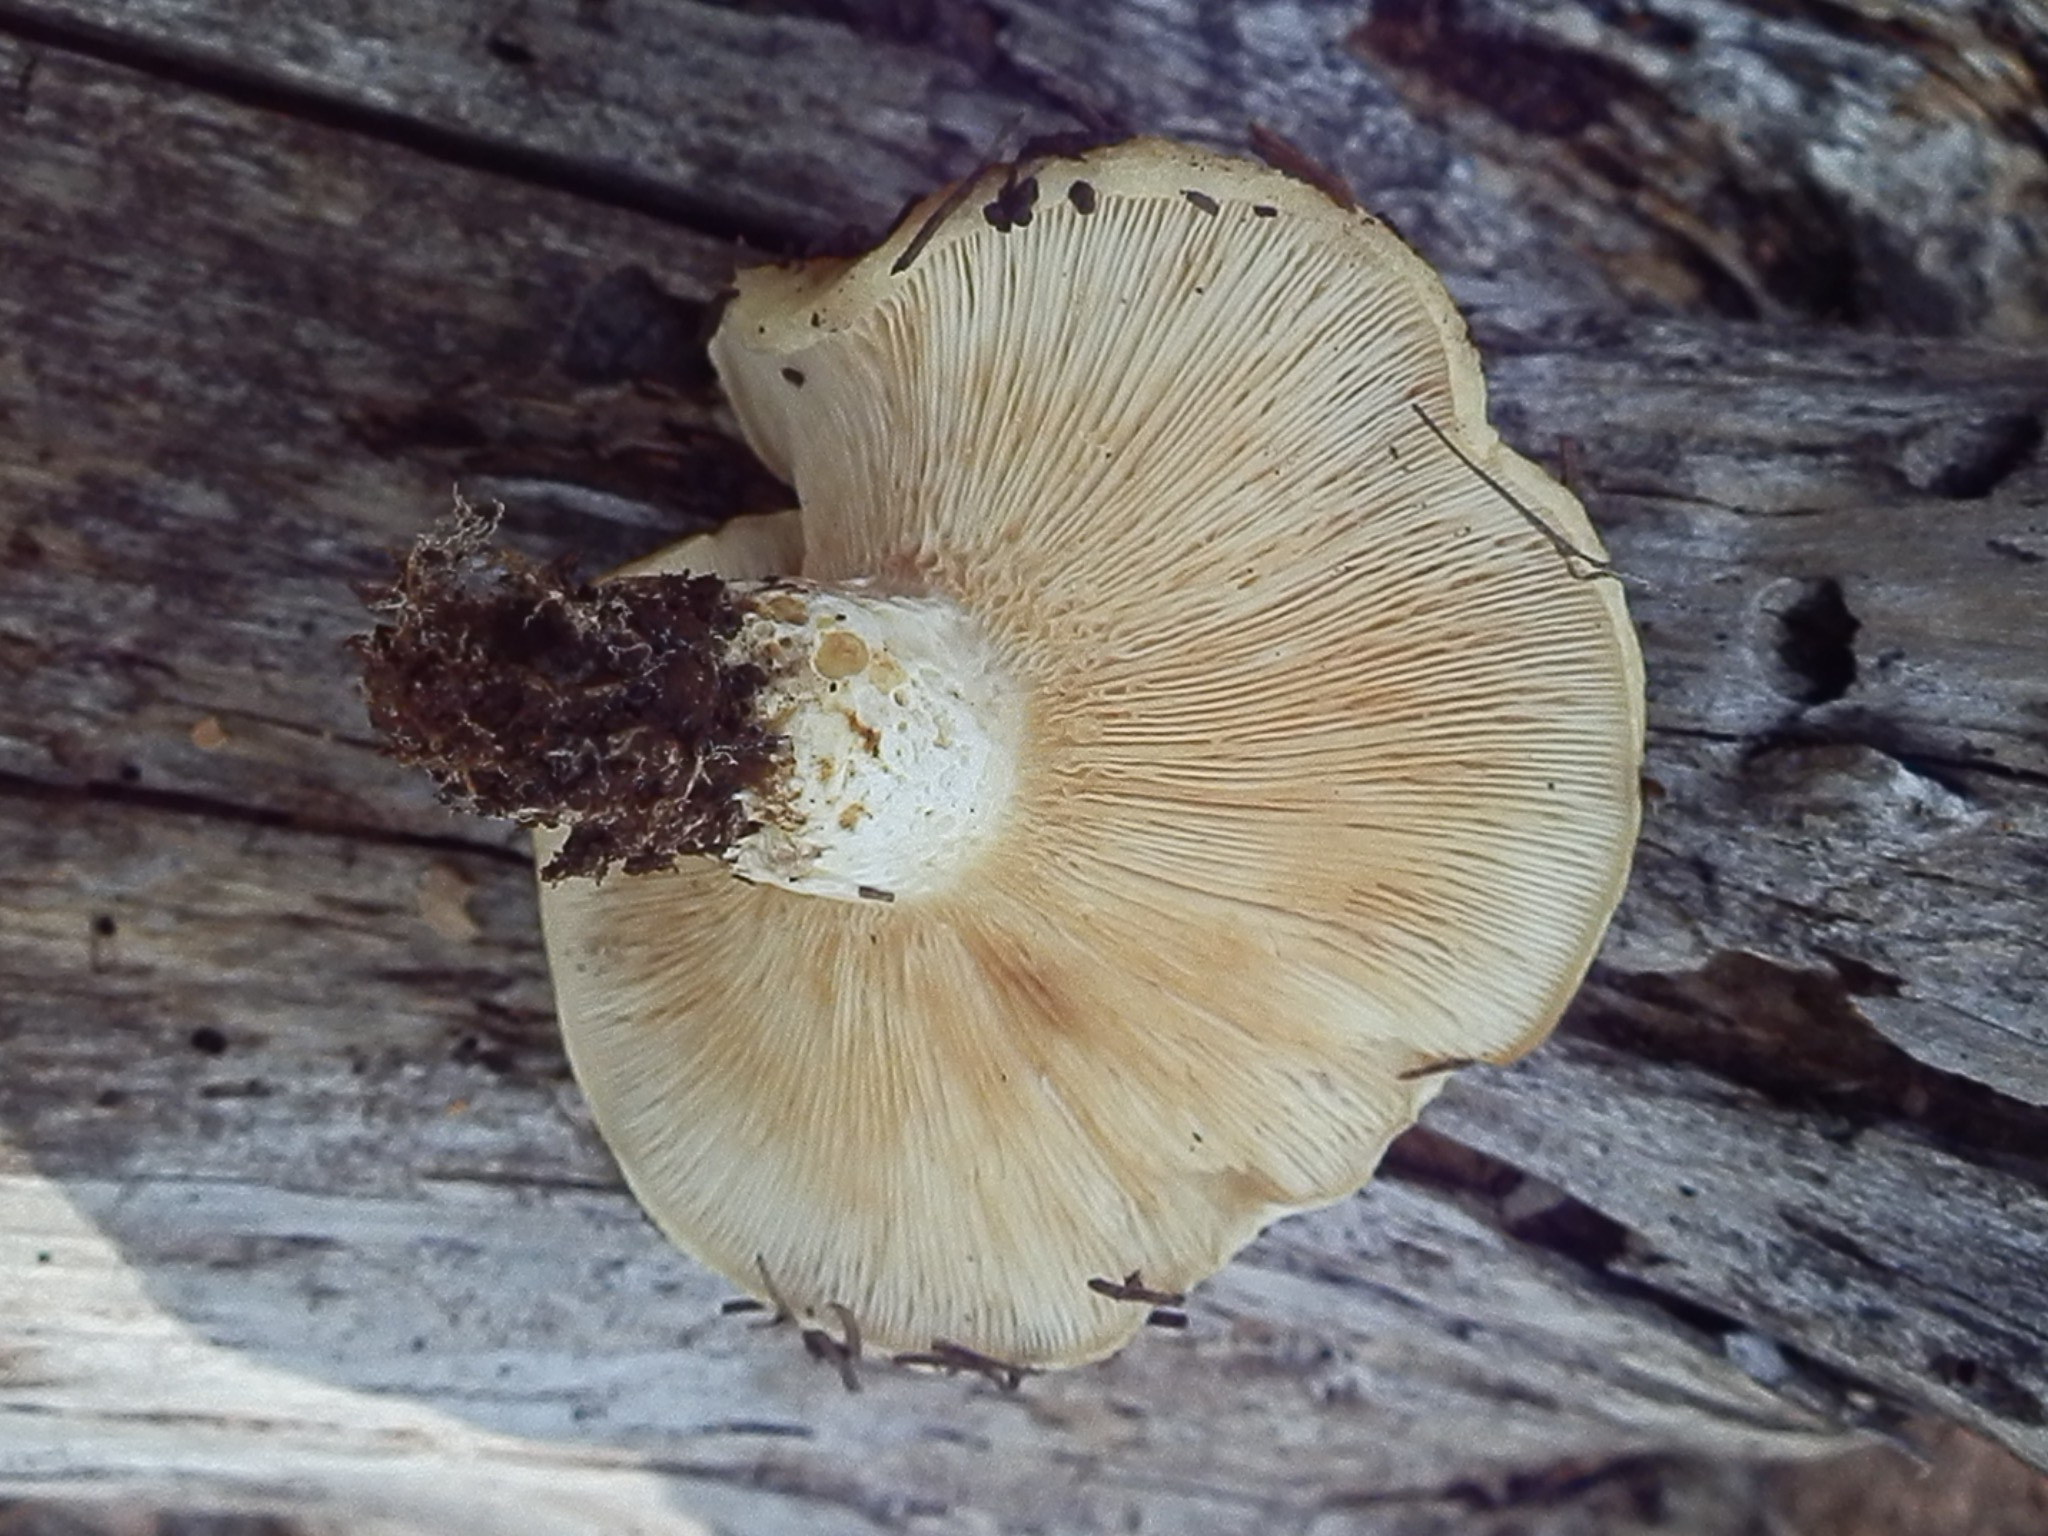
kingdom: Fungi
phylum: Basidiomycota
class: Agaricomycetes
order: Russulales
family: Russulaceae
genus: Lactarius
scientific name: Lactarius alnicola
